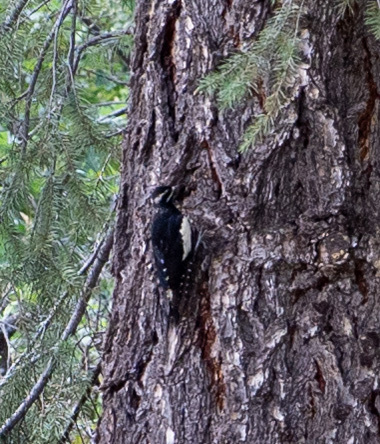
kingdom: Animalia
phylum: Chordata
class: Aves
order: Piciformes
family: Picidae
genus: Sphyrapicus
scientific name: Sphyrapicus thyroideus
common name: Williamson's sapsucker
